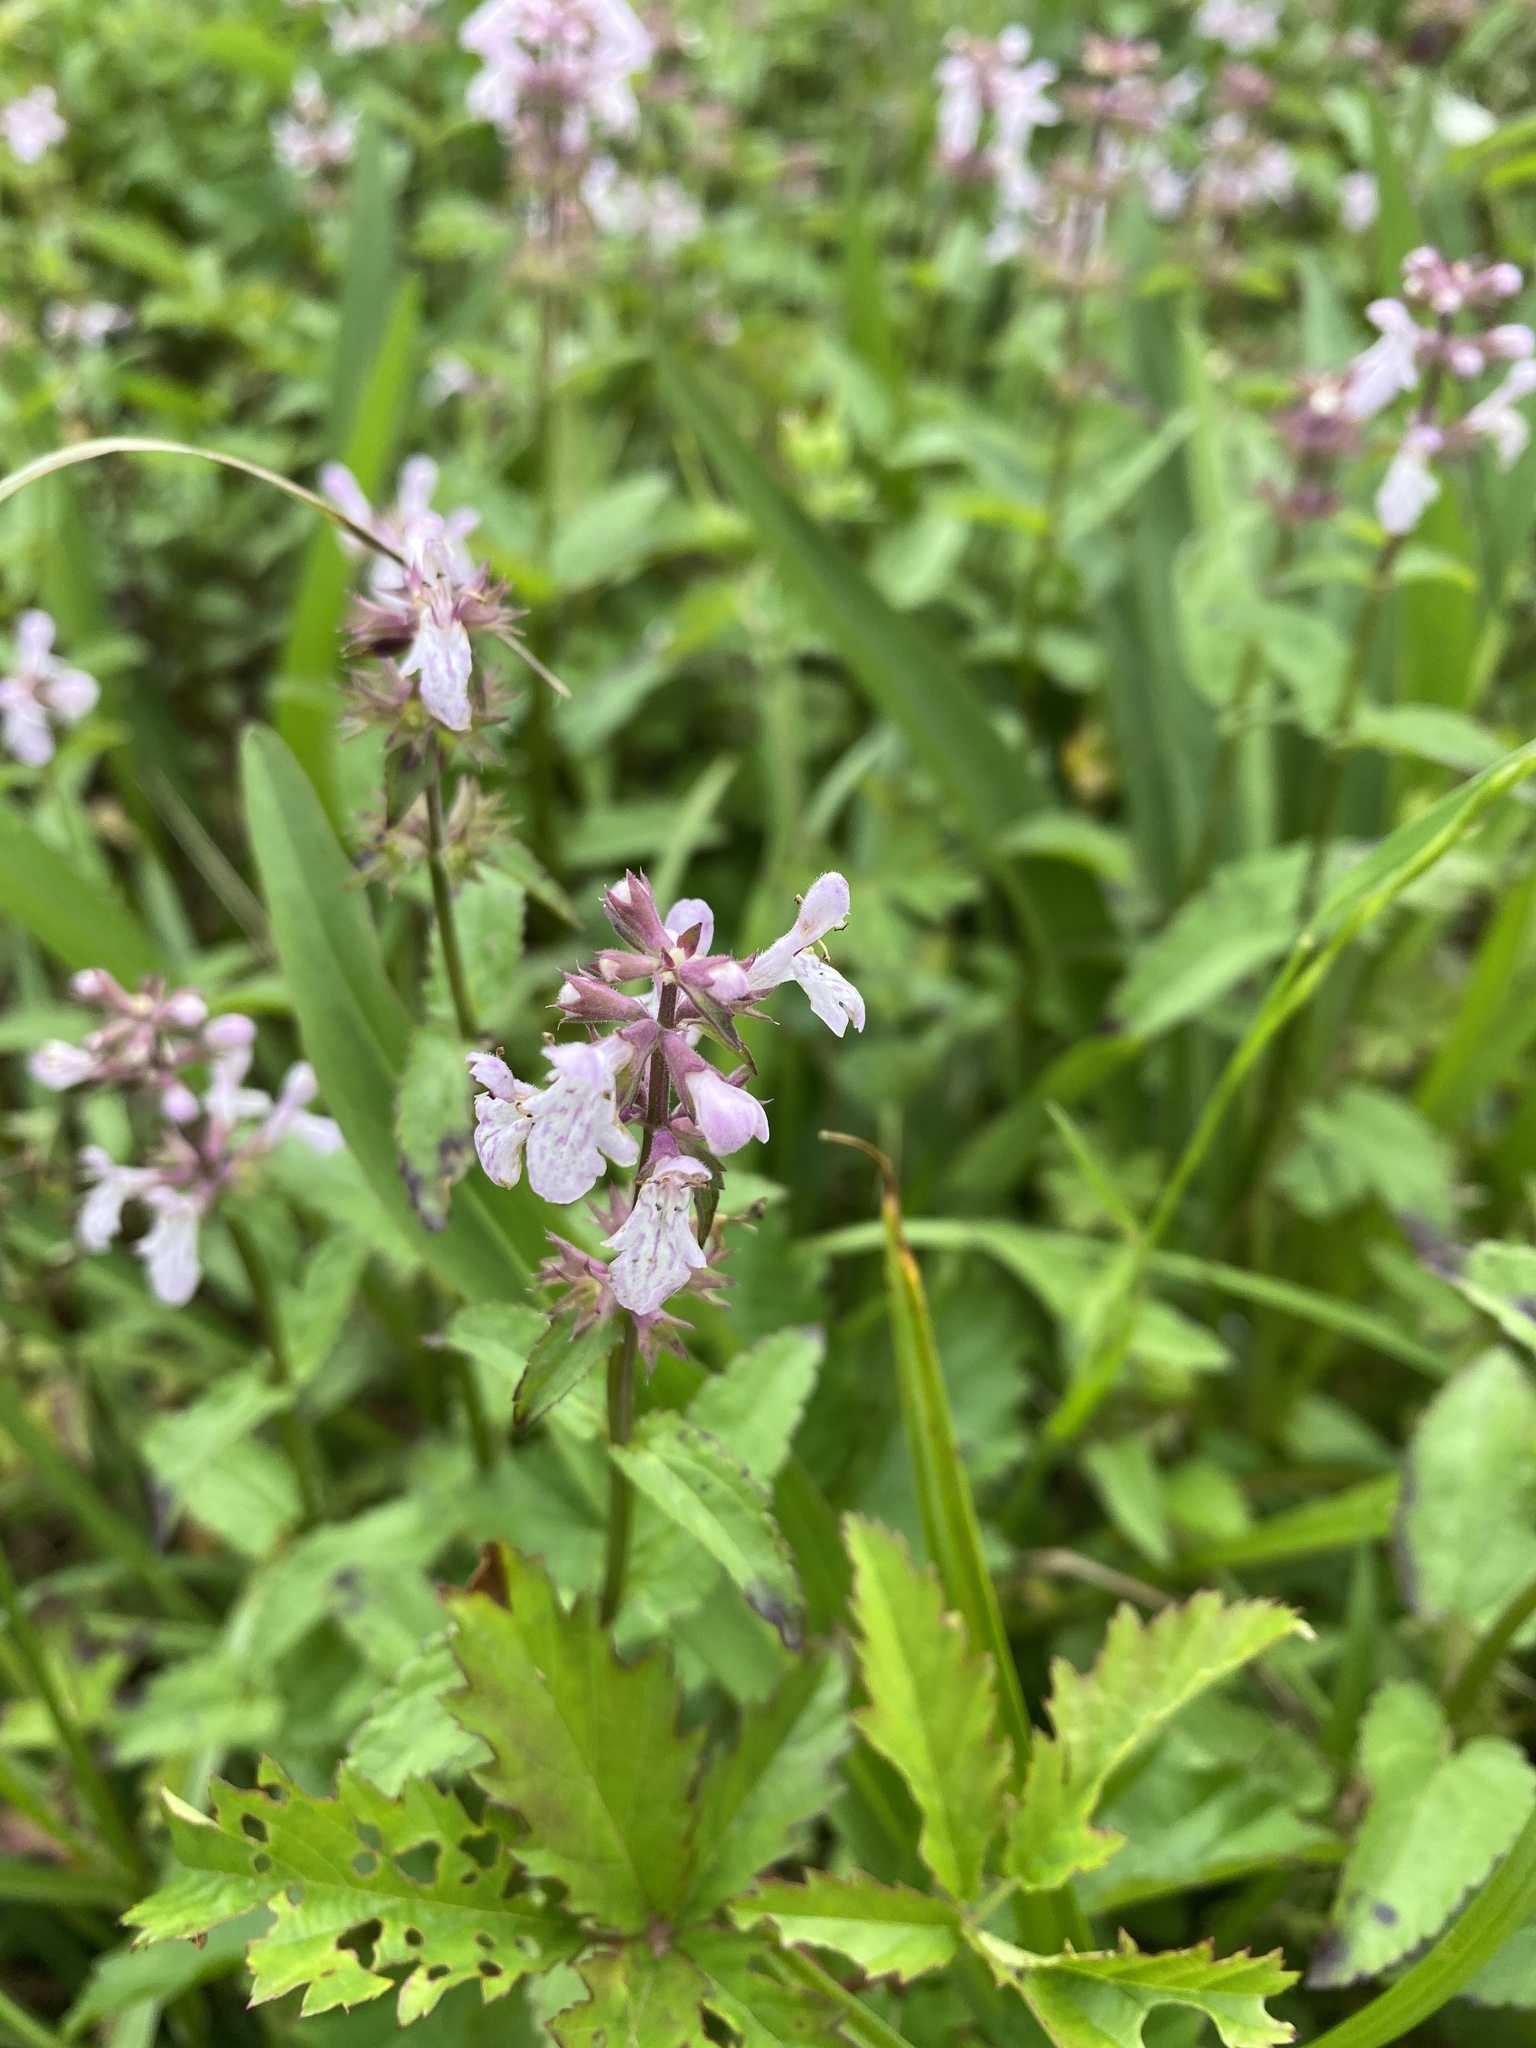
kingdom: Plantae
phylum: Tracheophyta
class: Magnoliopsida
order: Lamiales
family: Lamiaceae
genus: Stachys
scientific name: Stachys floridana
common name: Florida betony
